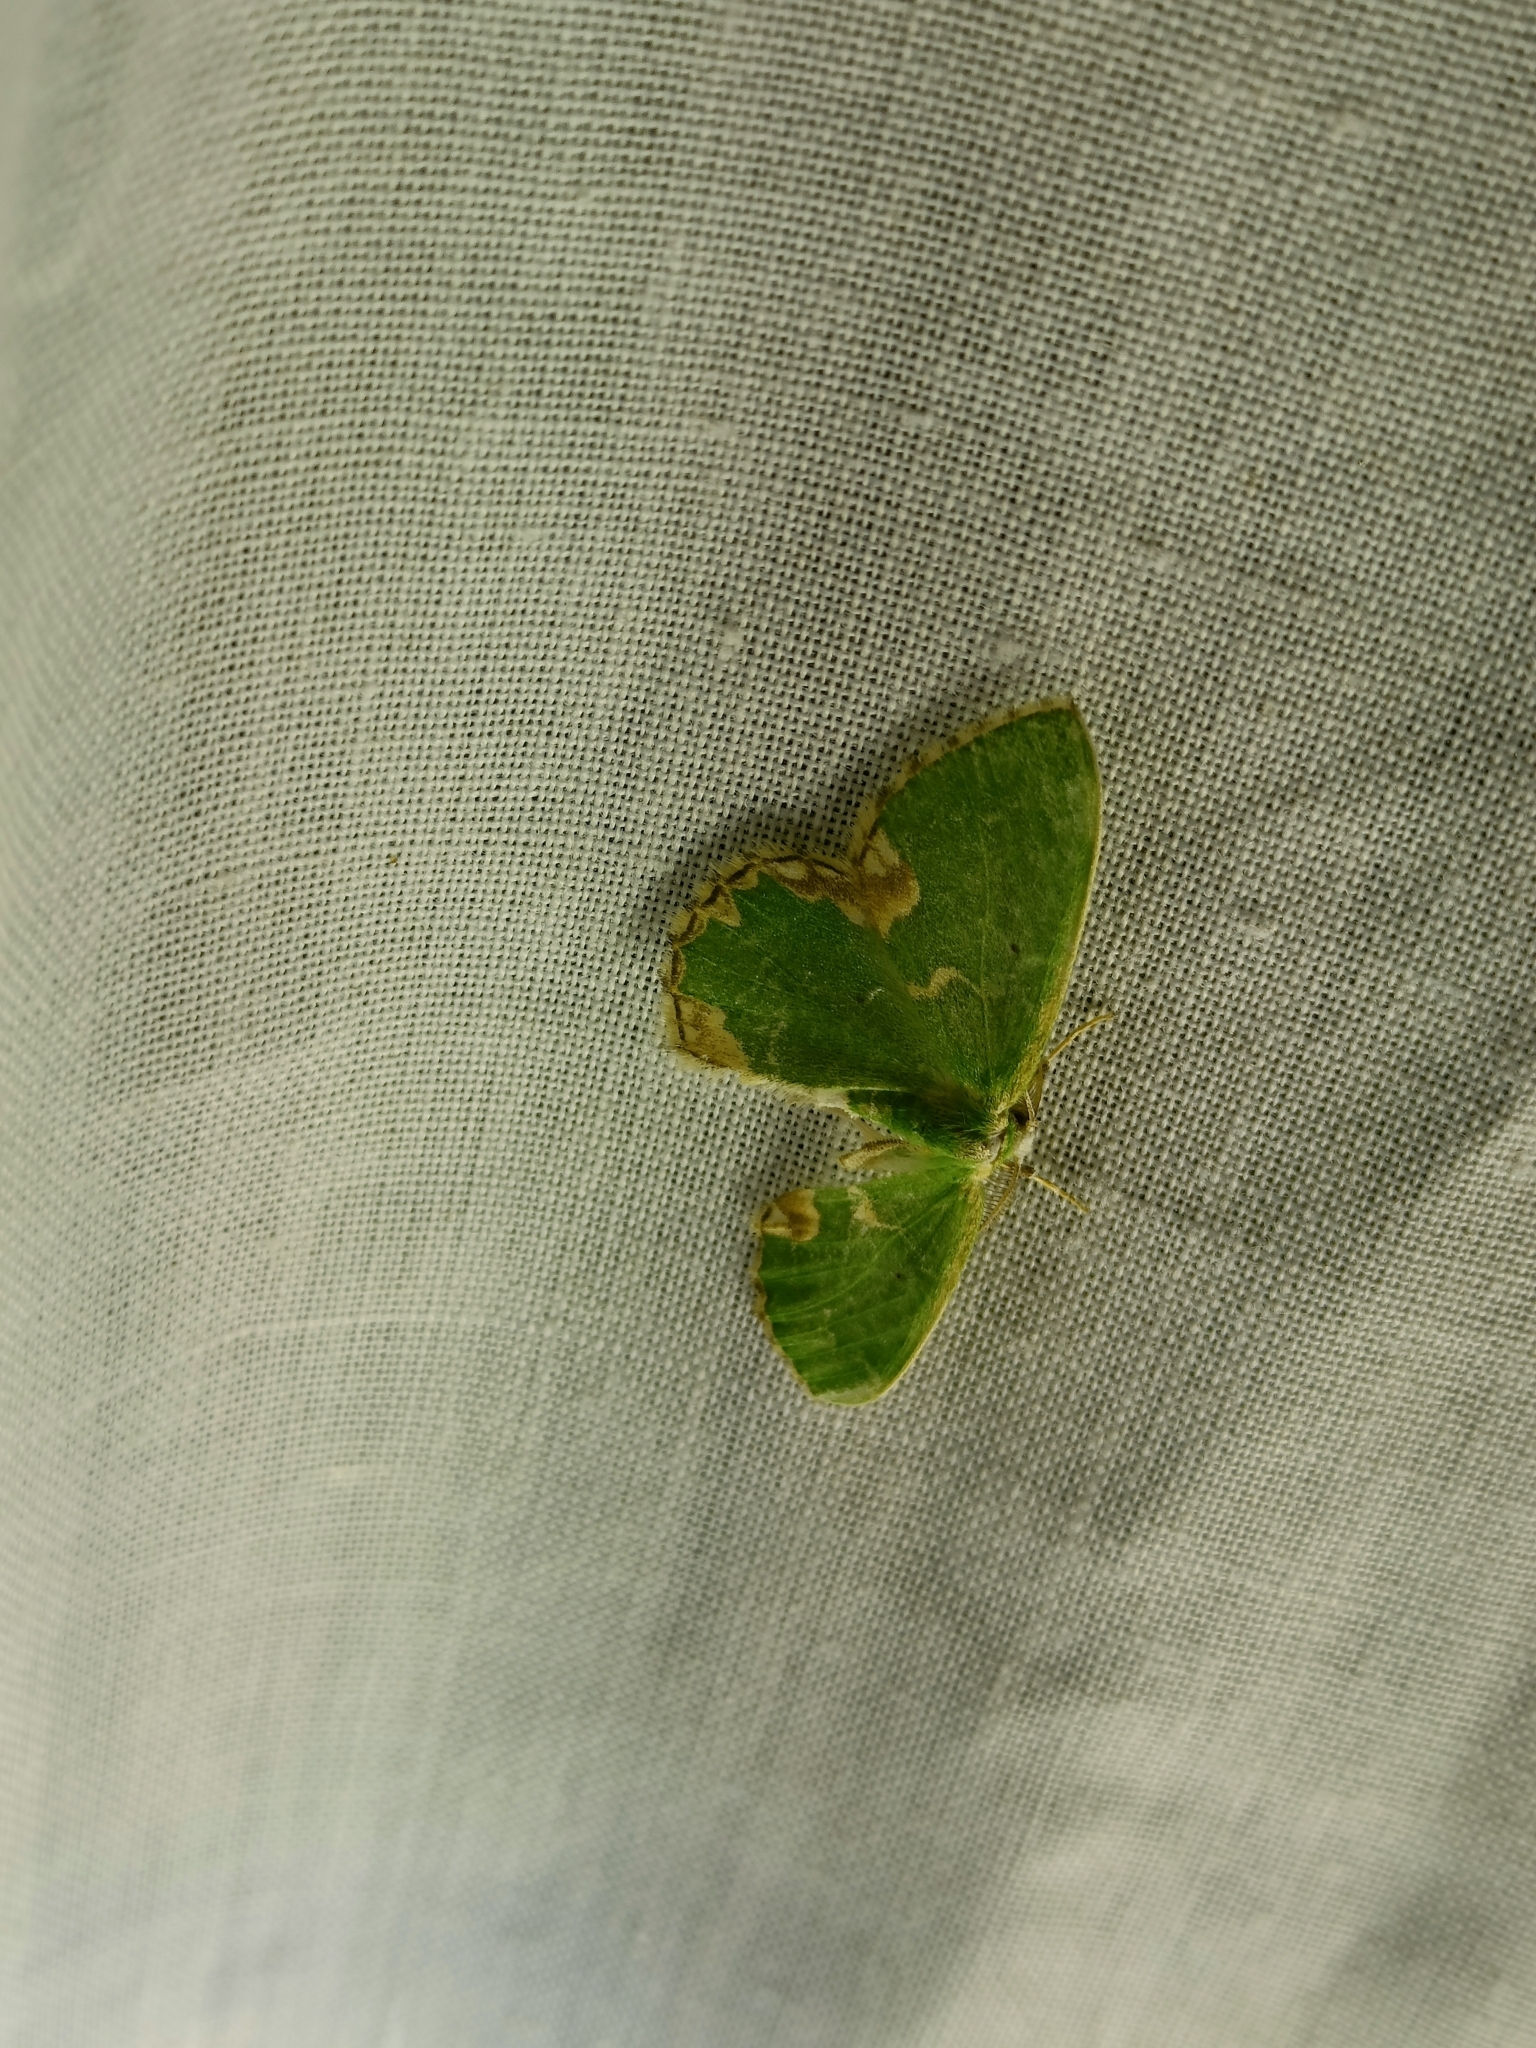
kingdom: Animalia
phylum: Arthropoda
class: Insecta
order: Lepidoptera
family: Geometridae
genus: Comibaena
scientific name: Comibaena bajularia
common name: Blotched emerald
